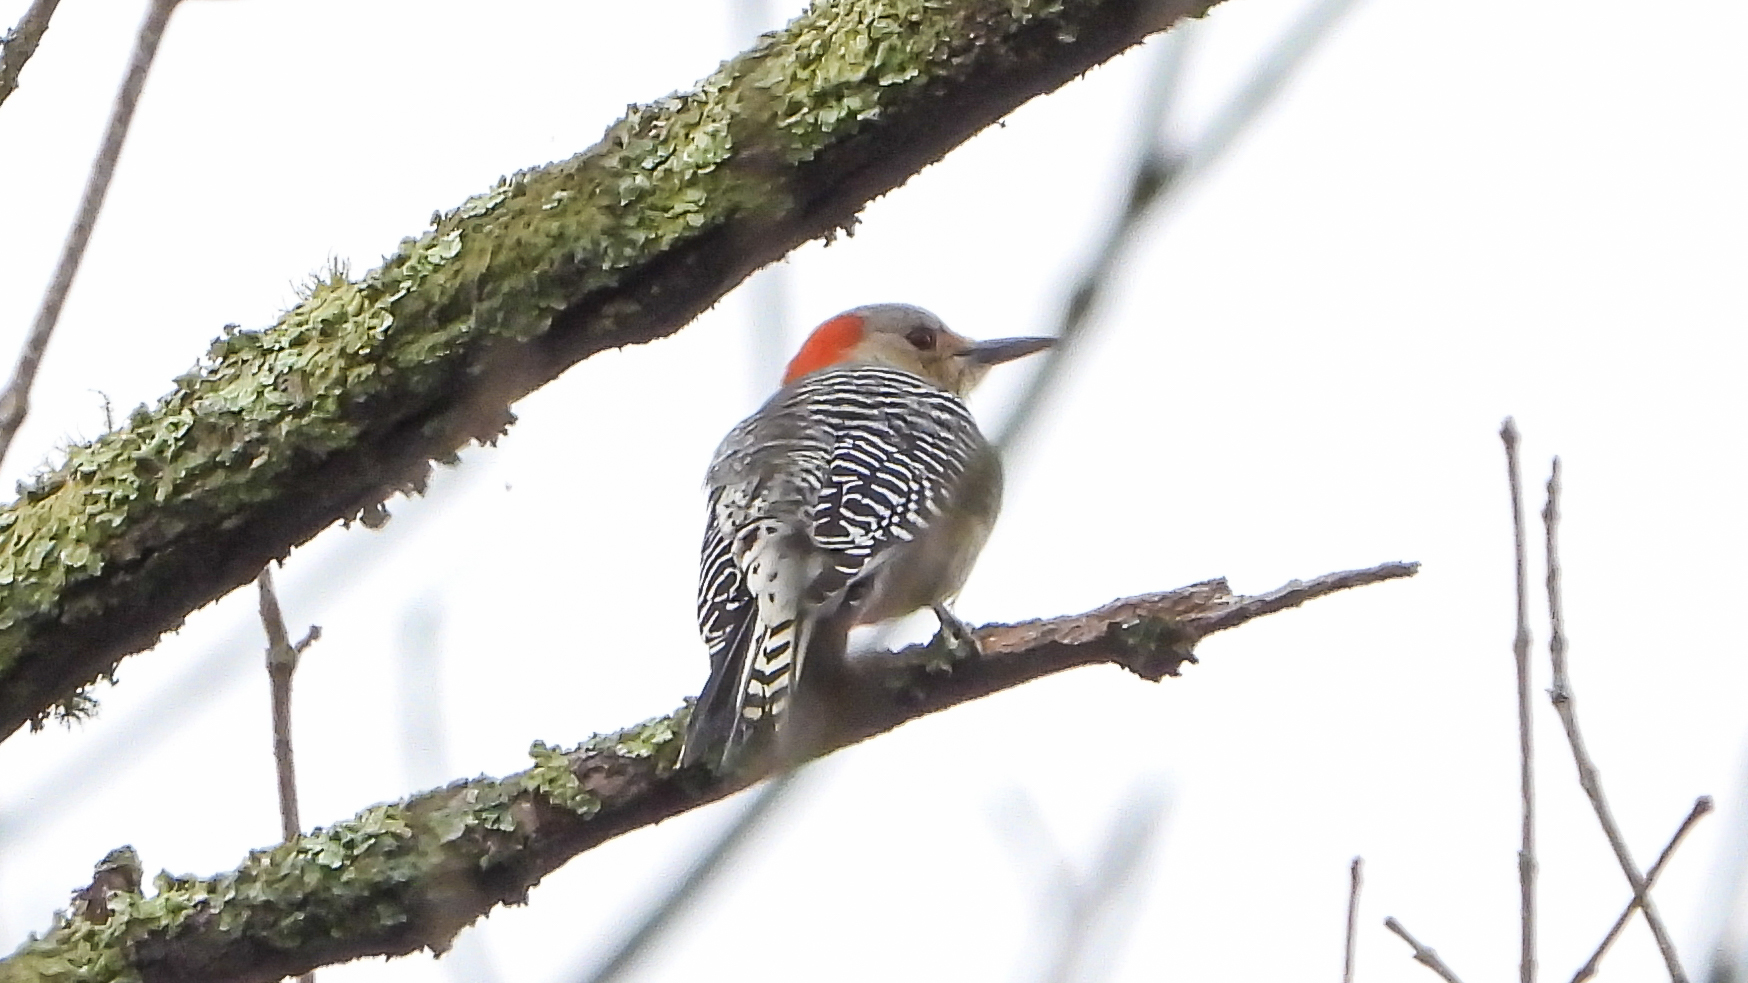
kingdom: Animalia
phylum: Chordata
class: Aves
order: Piciformes
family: Picidae
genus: Melanerpes
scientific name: Melanerpes carolinus
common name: Red-bellied woodpecker
